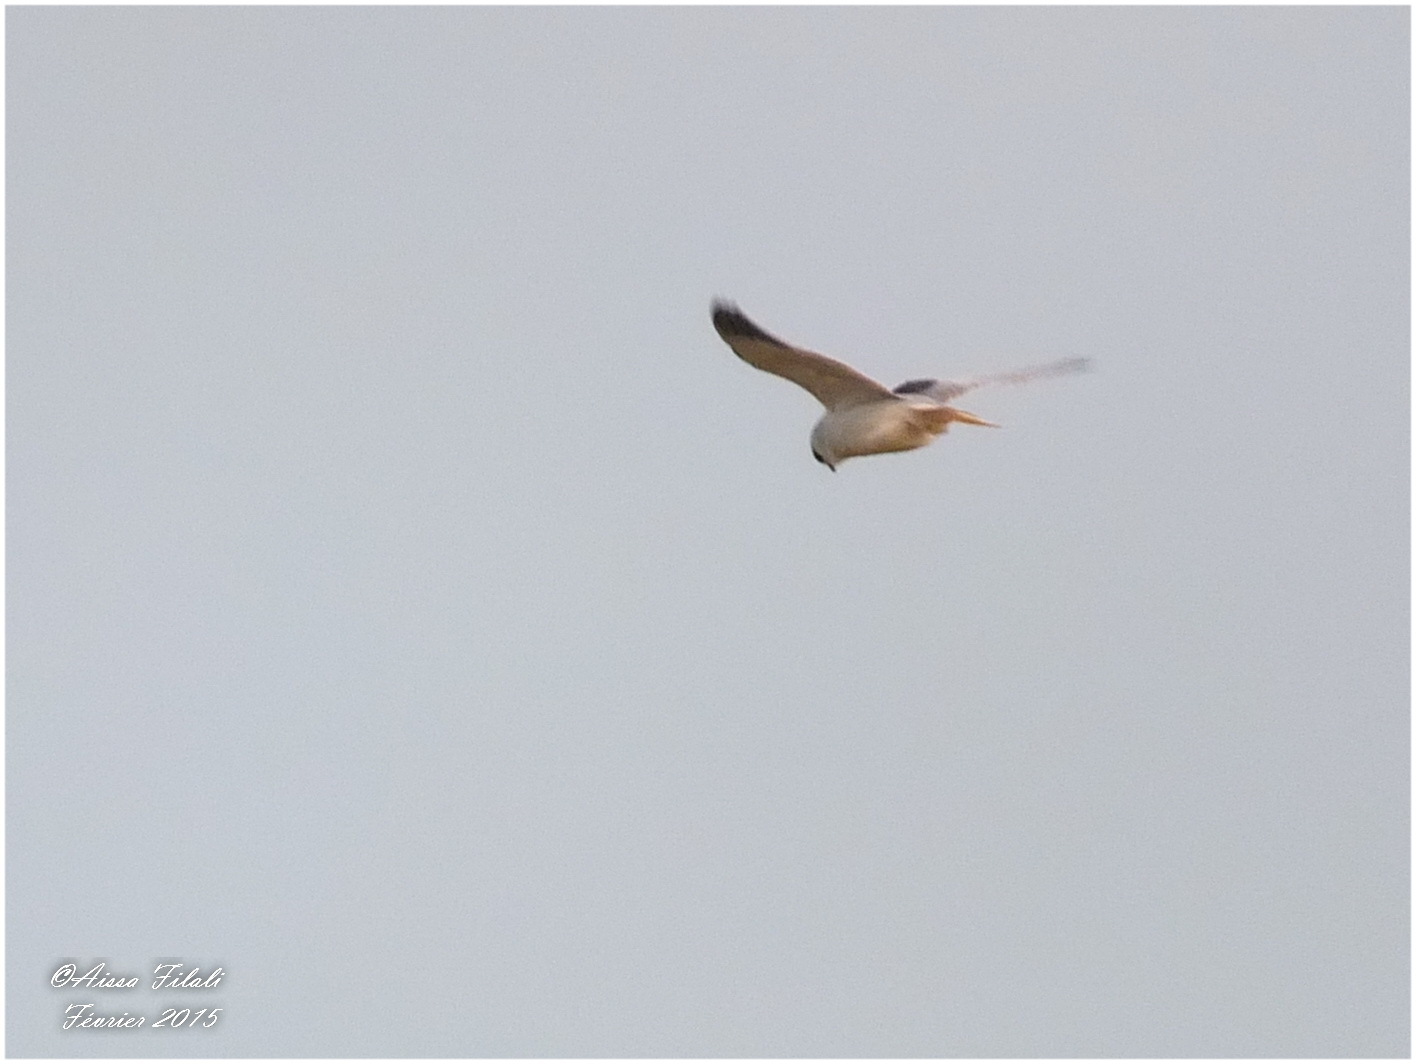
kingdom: Animalia
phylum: Chordata
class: Aves
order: Accipitriformes
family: Accipitridae
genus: Elanus
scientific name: Elanus caeruleus
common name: Black-winged kite
